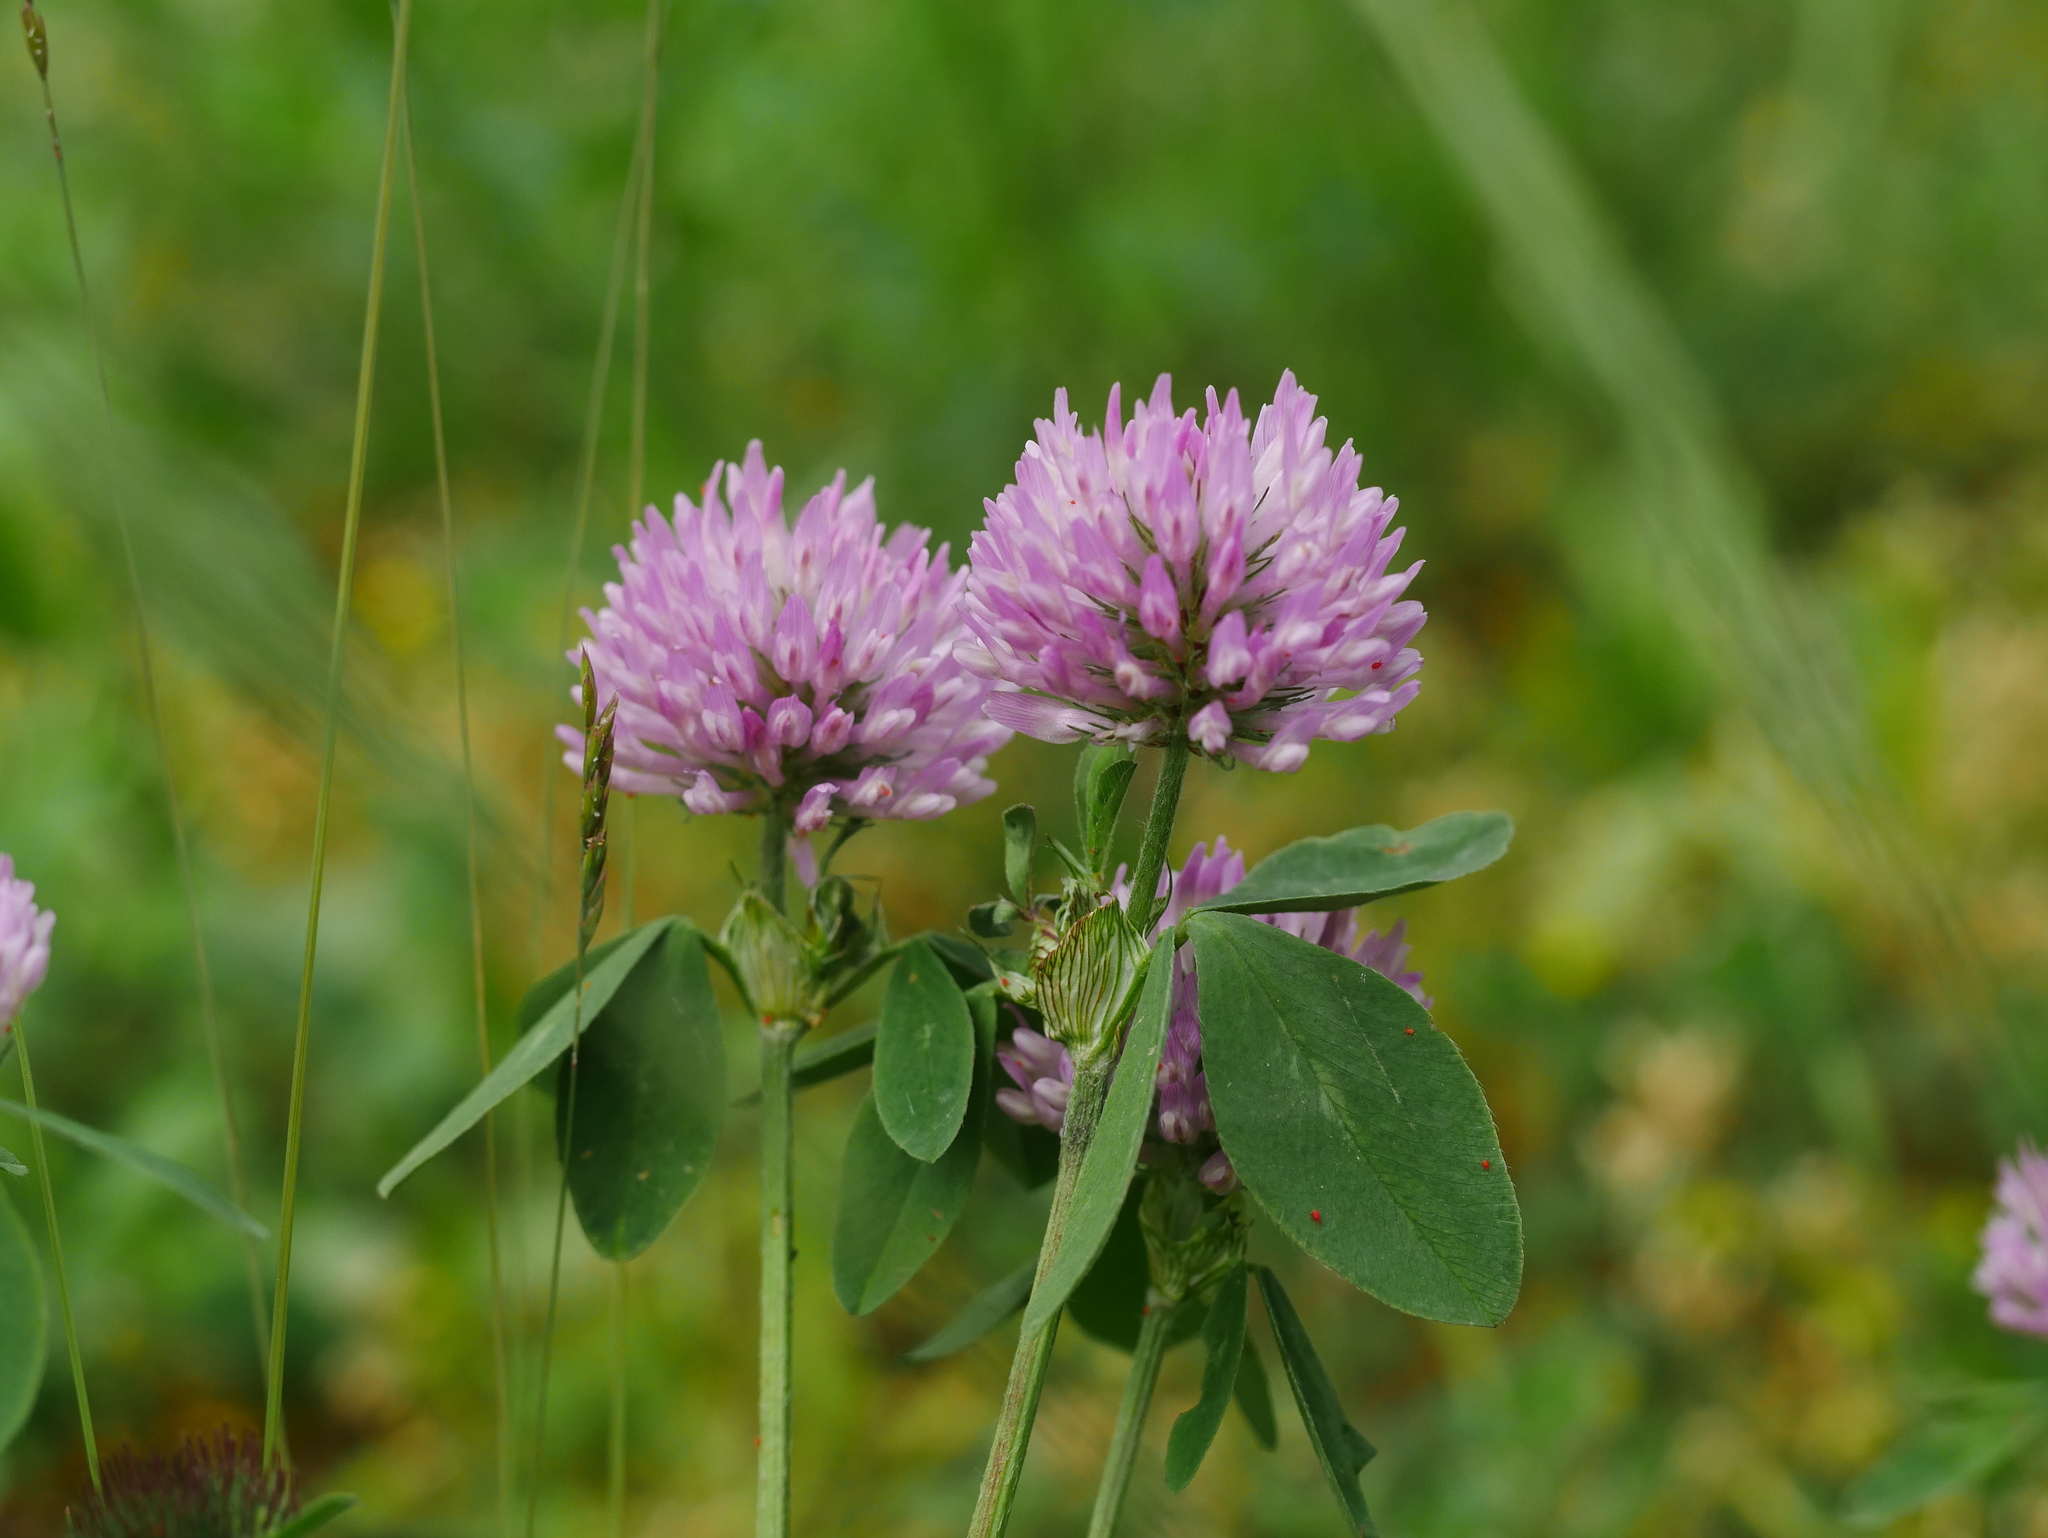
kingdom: Plantae
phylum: Tracheophyta
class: Magnoliopsida
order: Fabales
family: Fabaceae
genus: Trifolium
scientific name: Trifolium pratense
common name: Red clover
